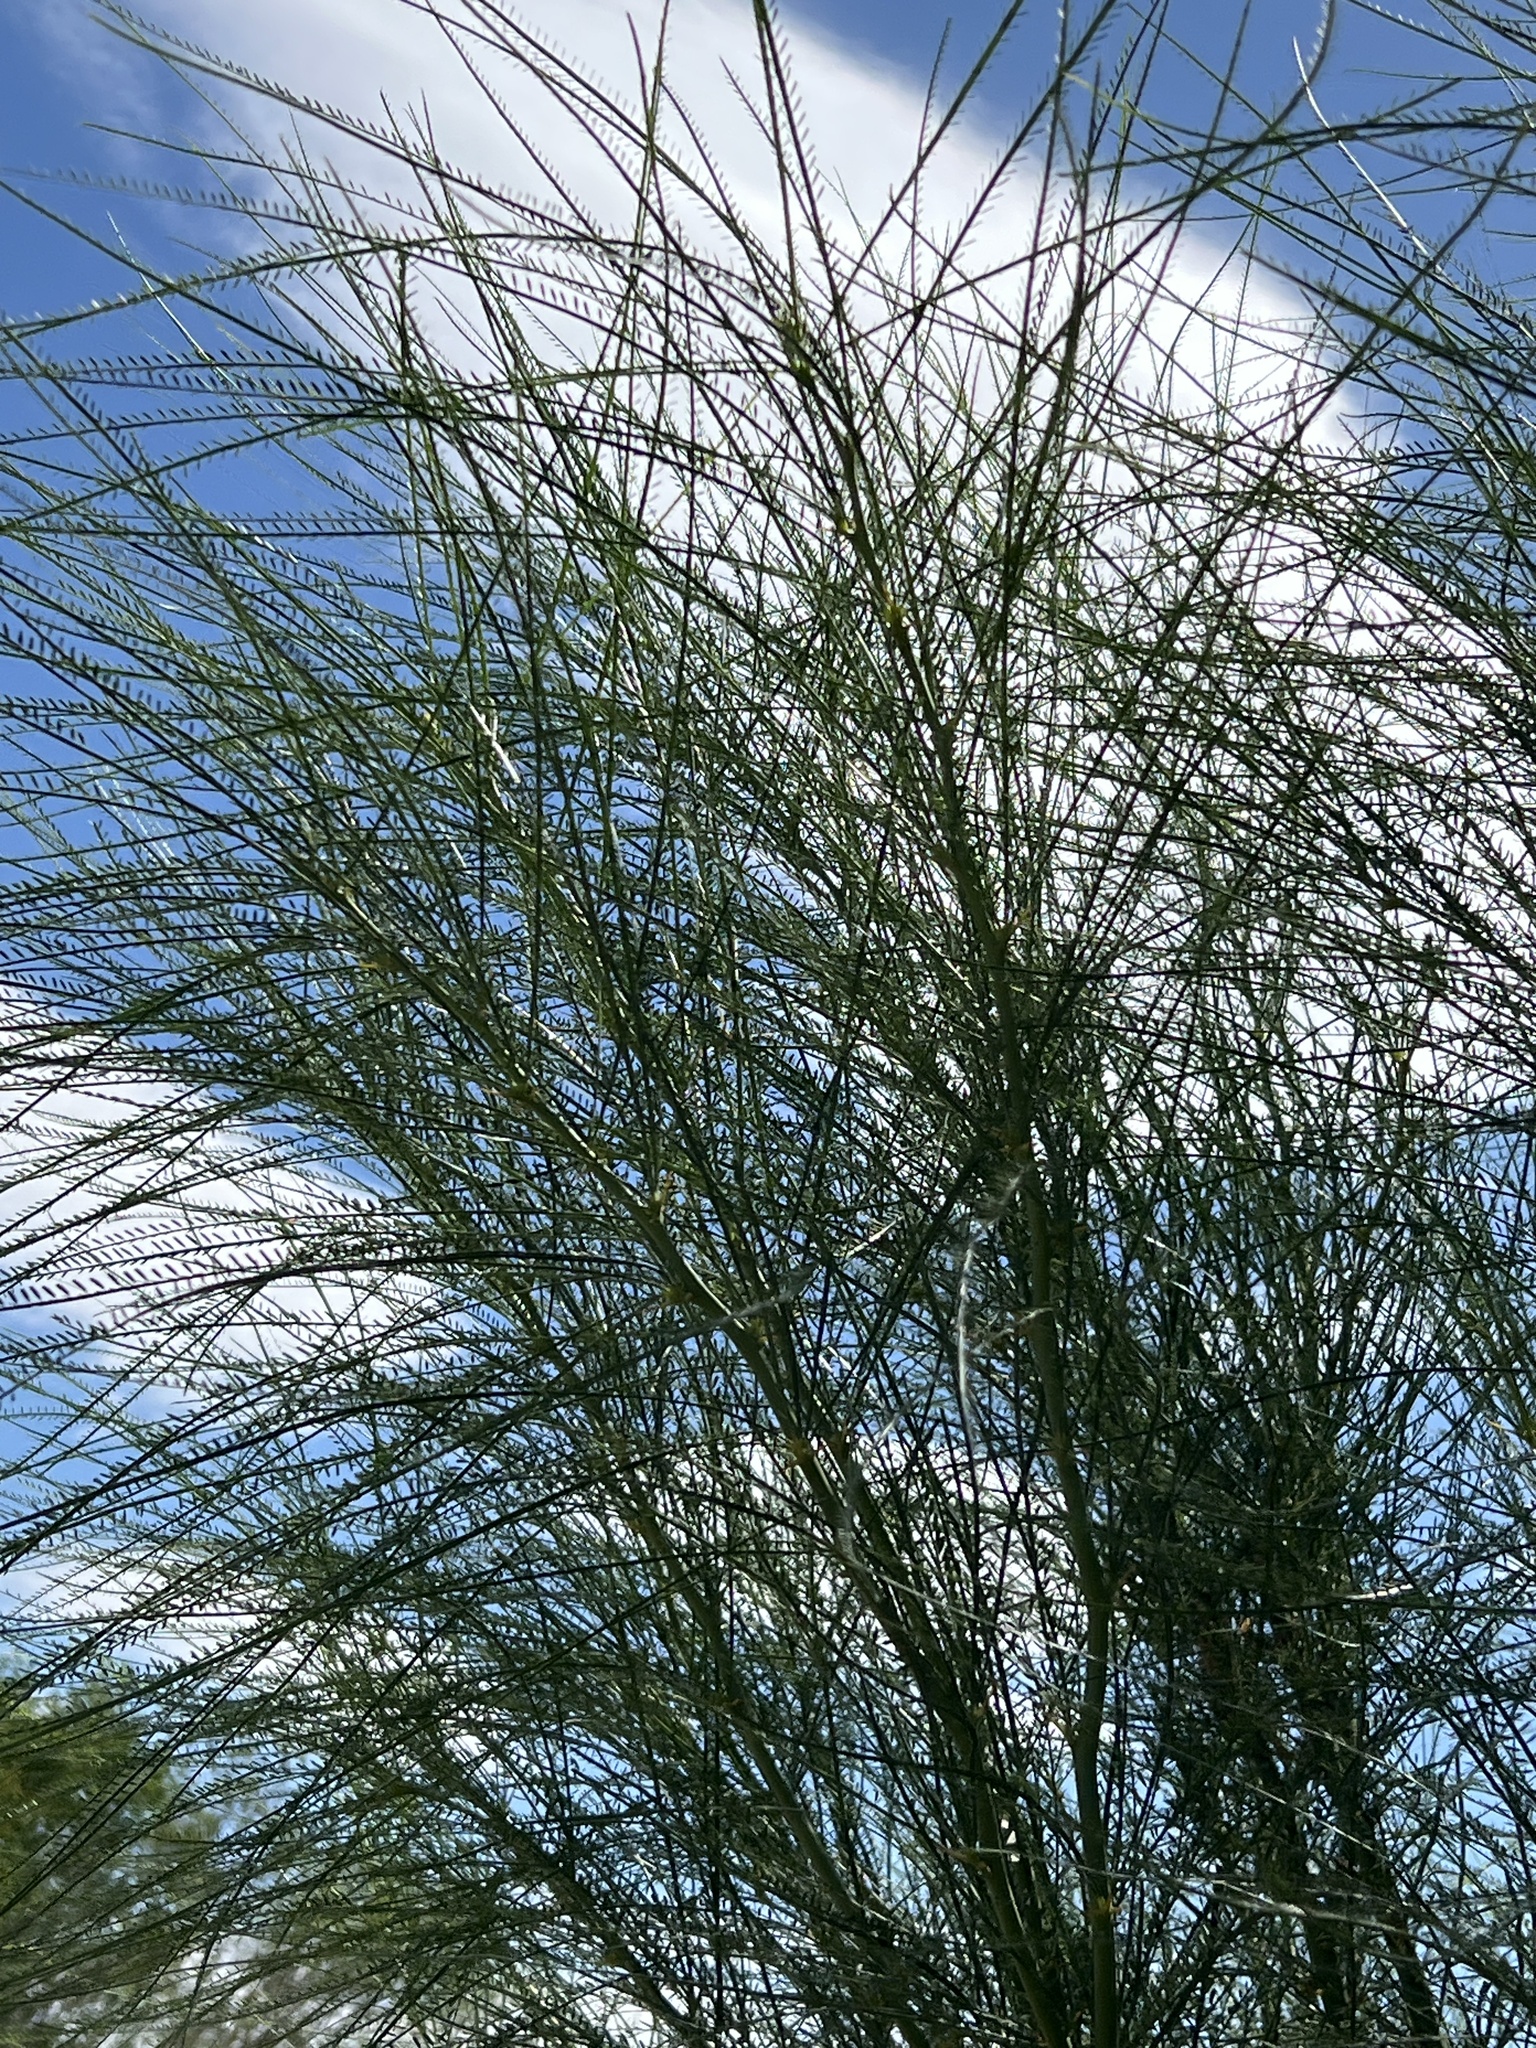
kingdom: Plantae
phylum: Tracheophyta
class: Magnoliopsida
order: Fabales
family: Fabaceae
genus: Parkinsonia
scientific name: Parkinsonia aculeata
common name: Jerusalem thorn
